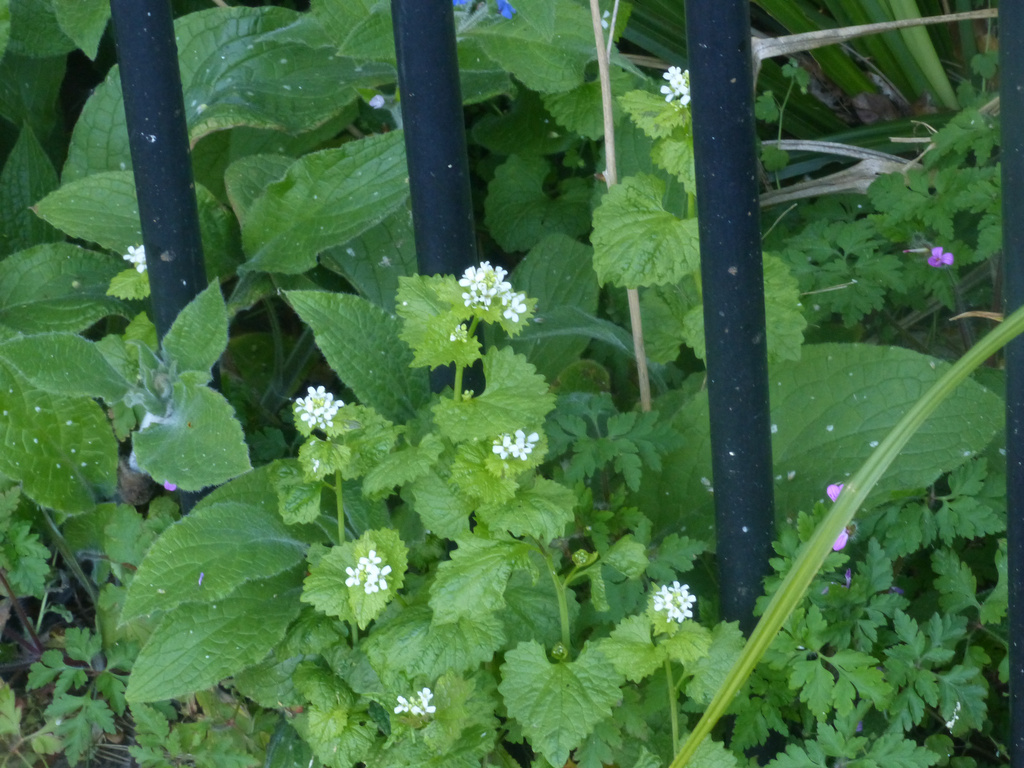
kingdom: Plantae
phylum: Tracheophyta
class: Magnoliopsida
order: Brassicales
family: Brassicaceae
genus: Alliaria
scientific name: Alliaria petiolata
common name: Garlic mustard
